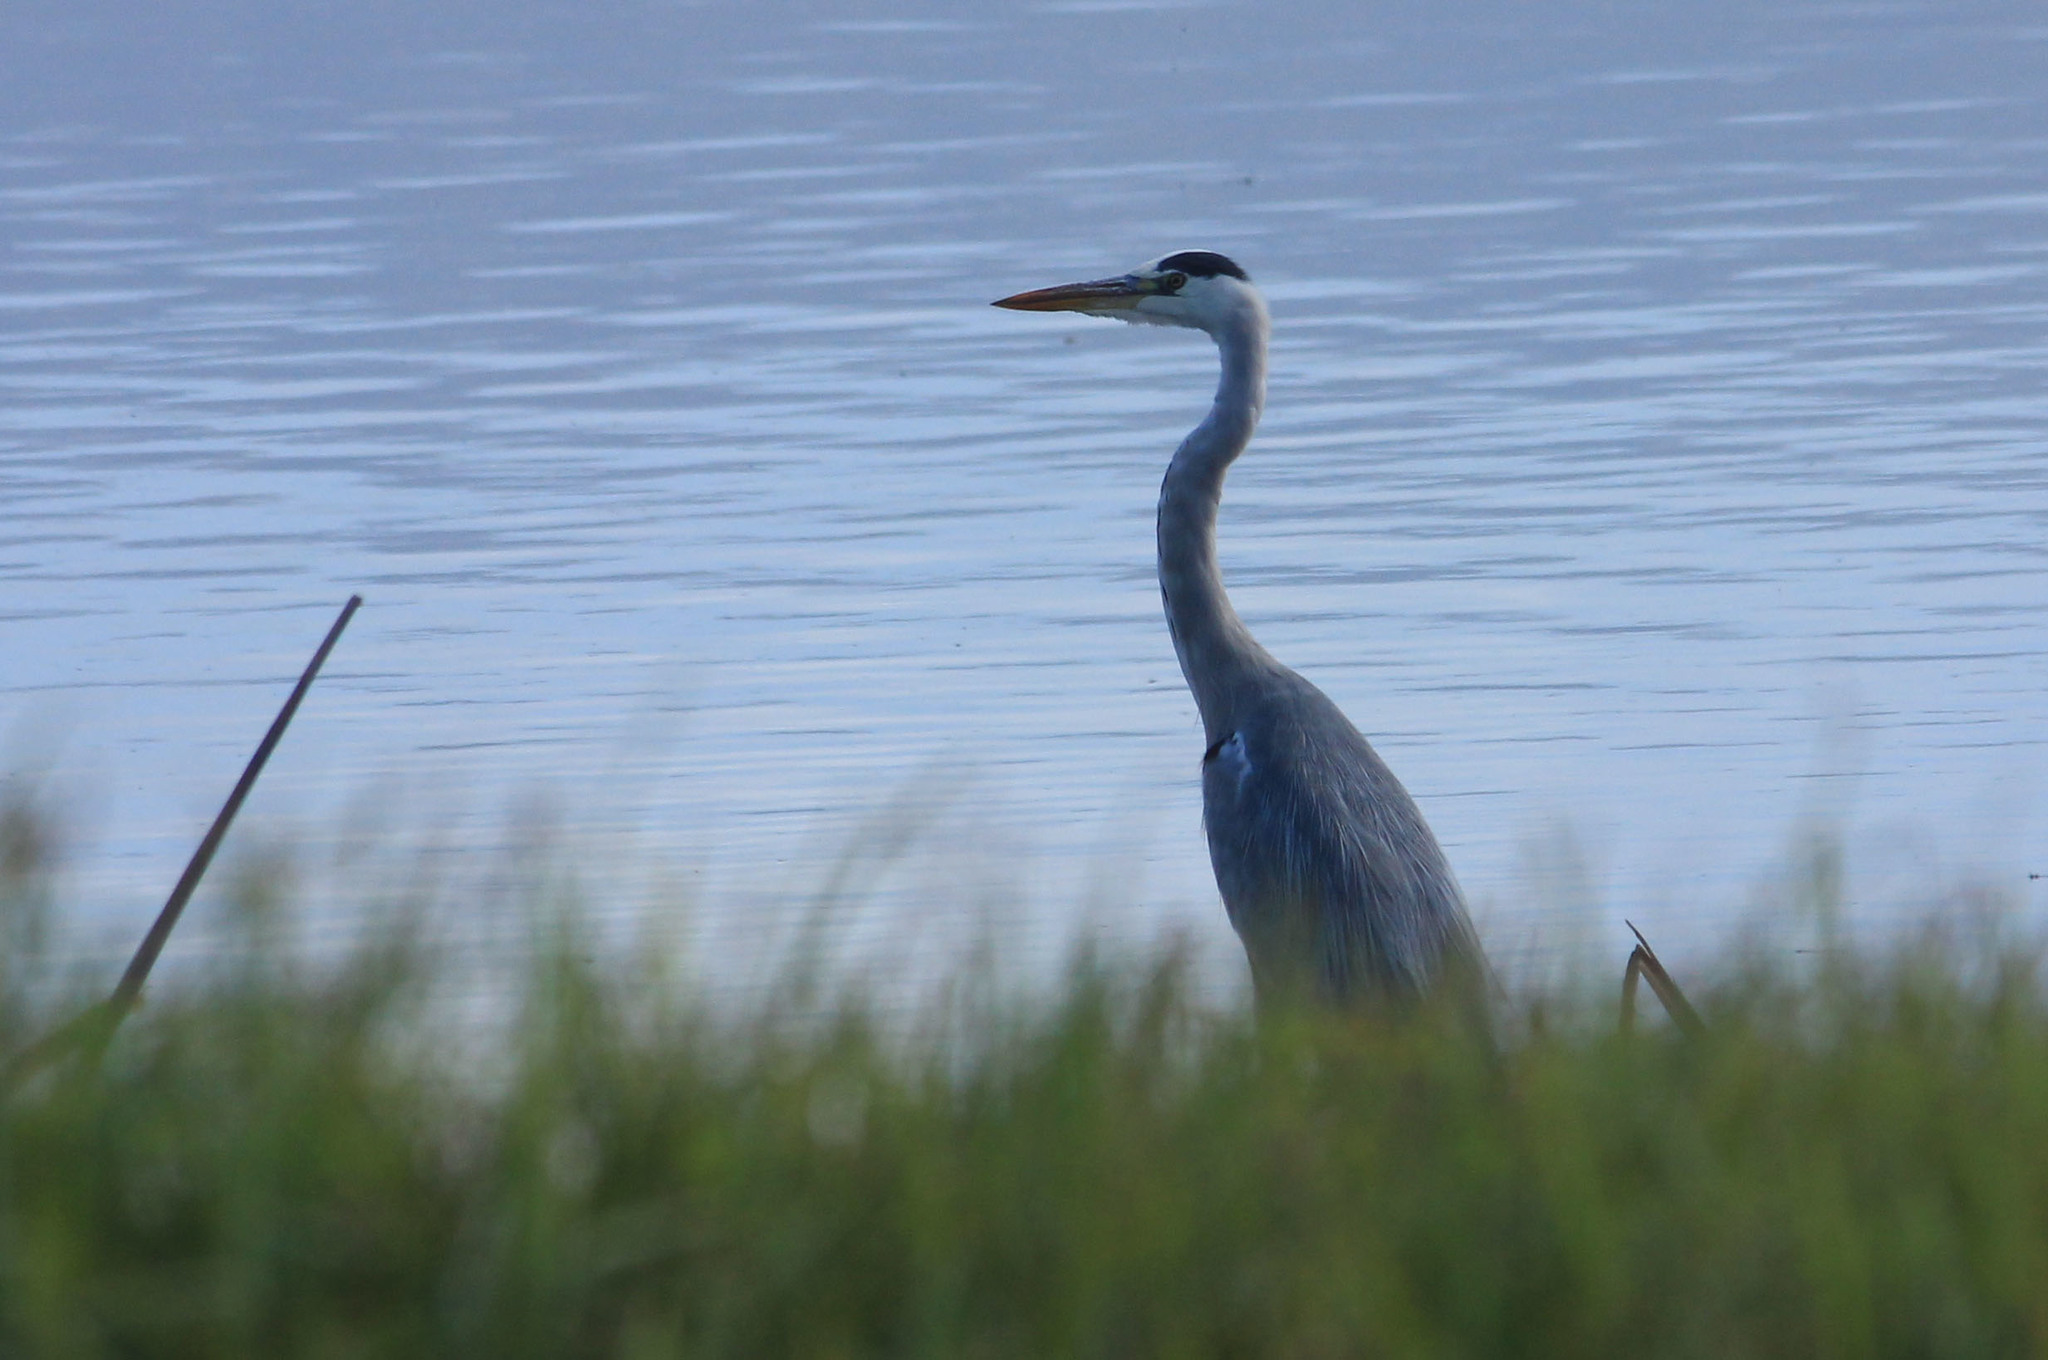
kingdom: Animalia
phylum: Chordata
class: Aves
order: Pelecaniformes
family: Ardeidae
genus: Ardea
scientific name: Ardea cinerea
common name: Grey heron
